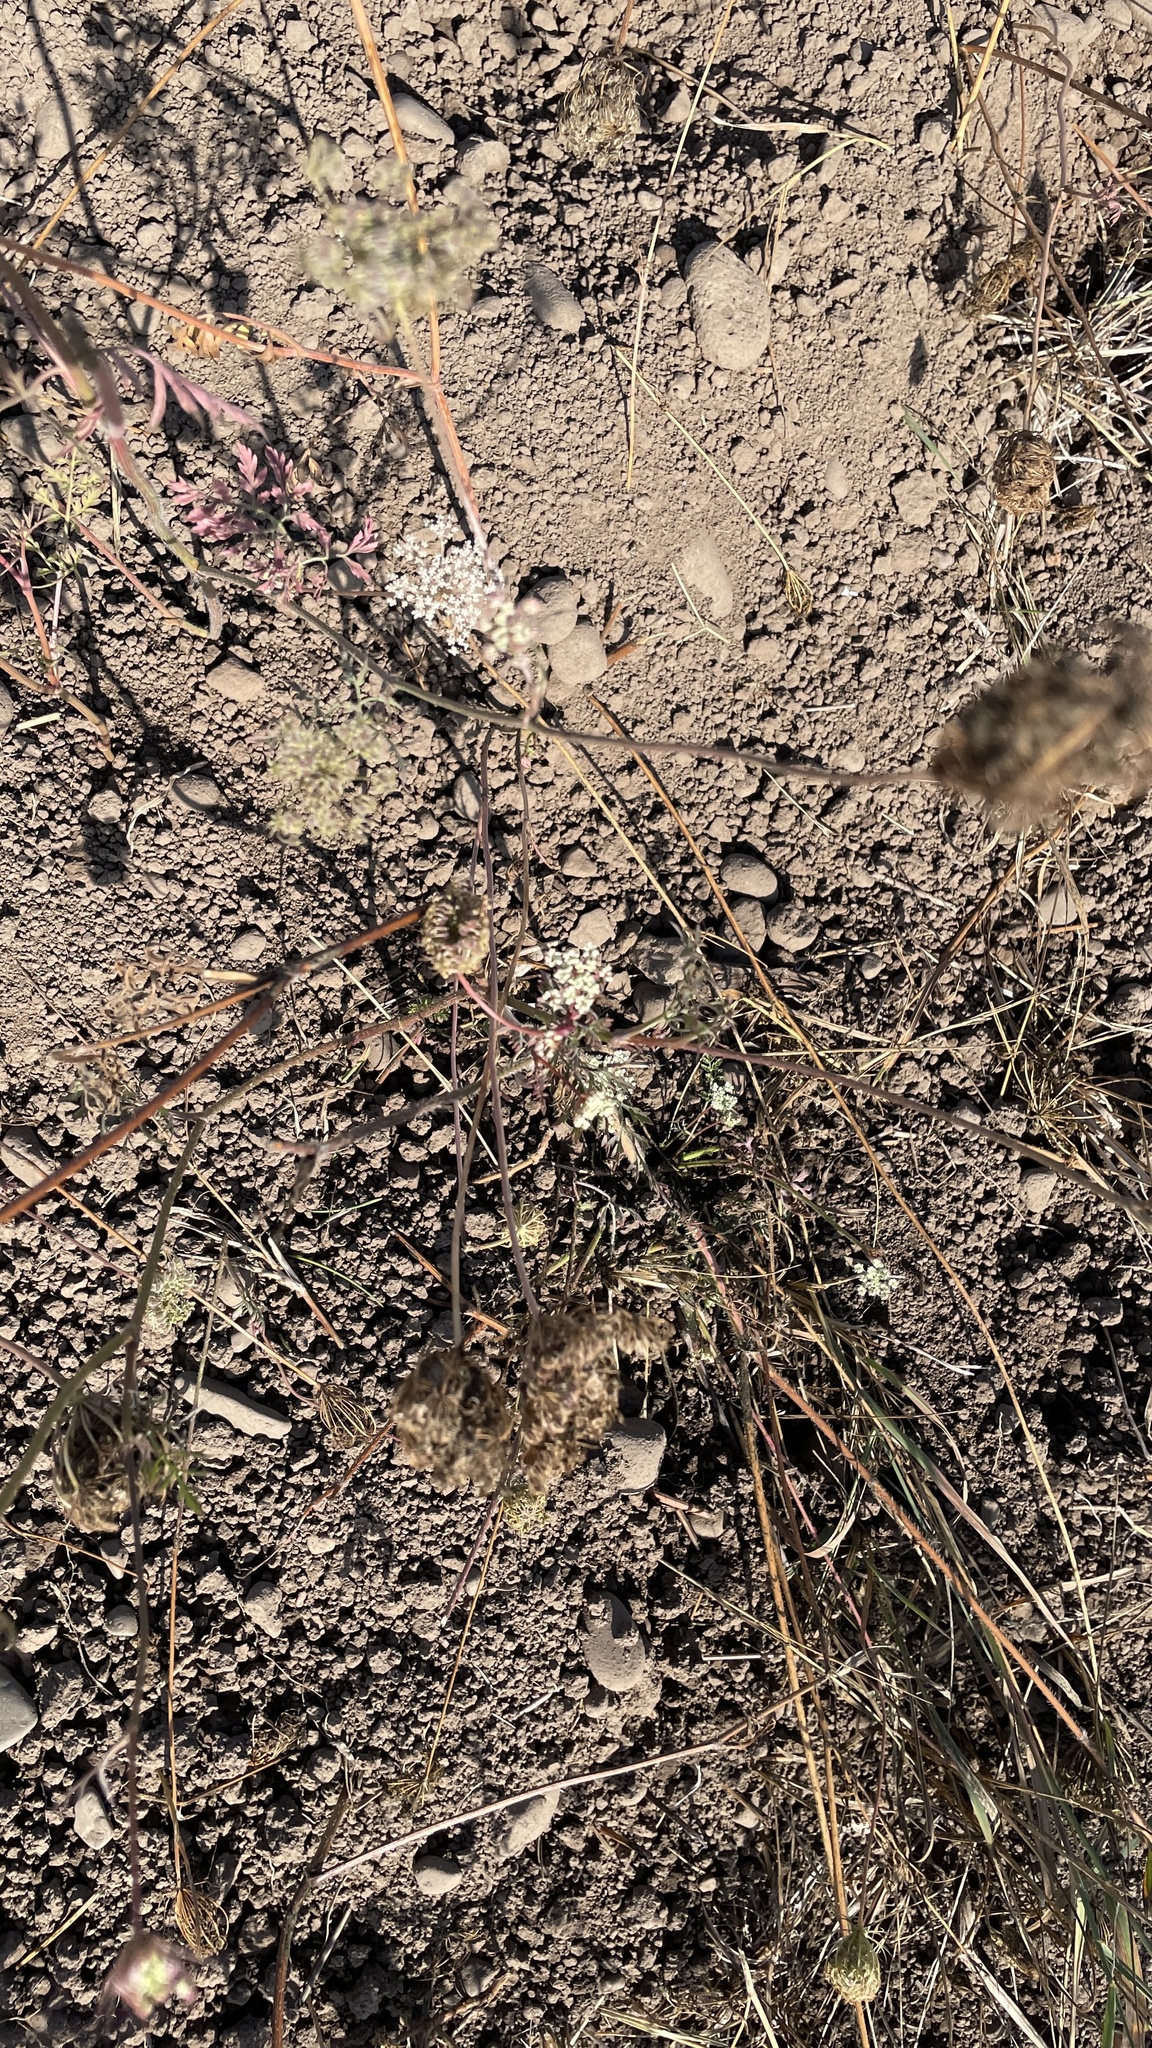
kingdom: Plantae
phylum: Tracheophyta
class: Magnoliopsida
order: Apiales
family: Apiaceae
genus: Daucus
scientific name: Daucus carota
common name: Wild carrot
